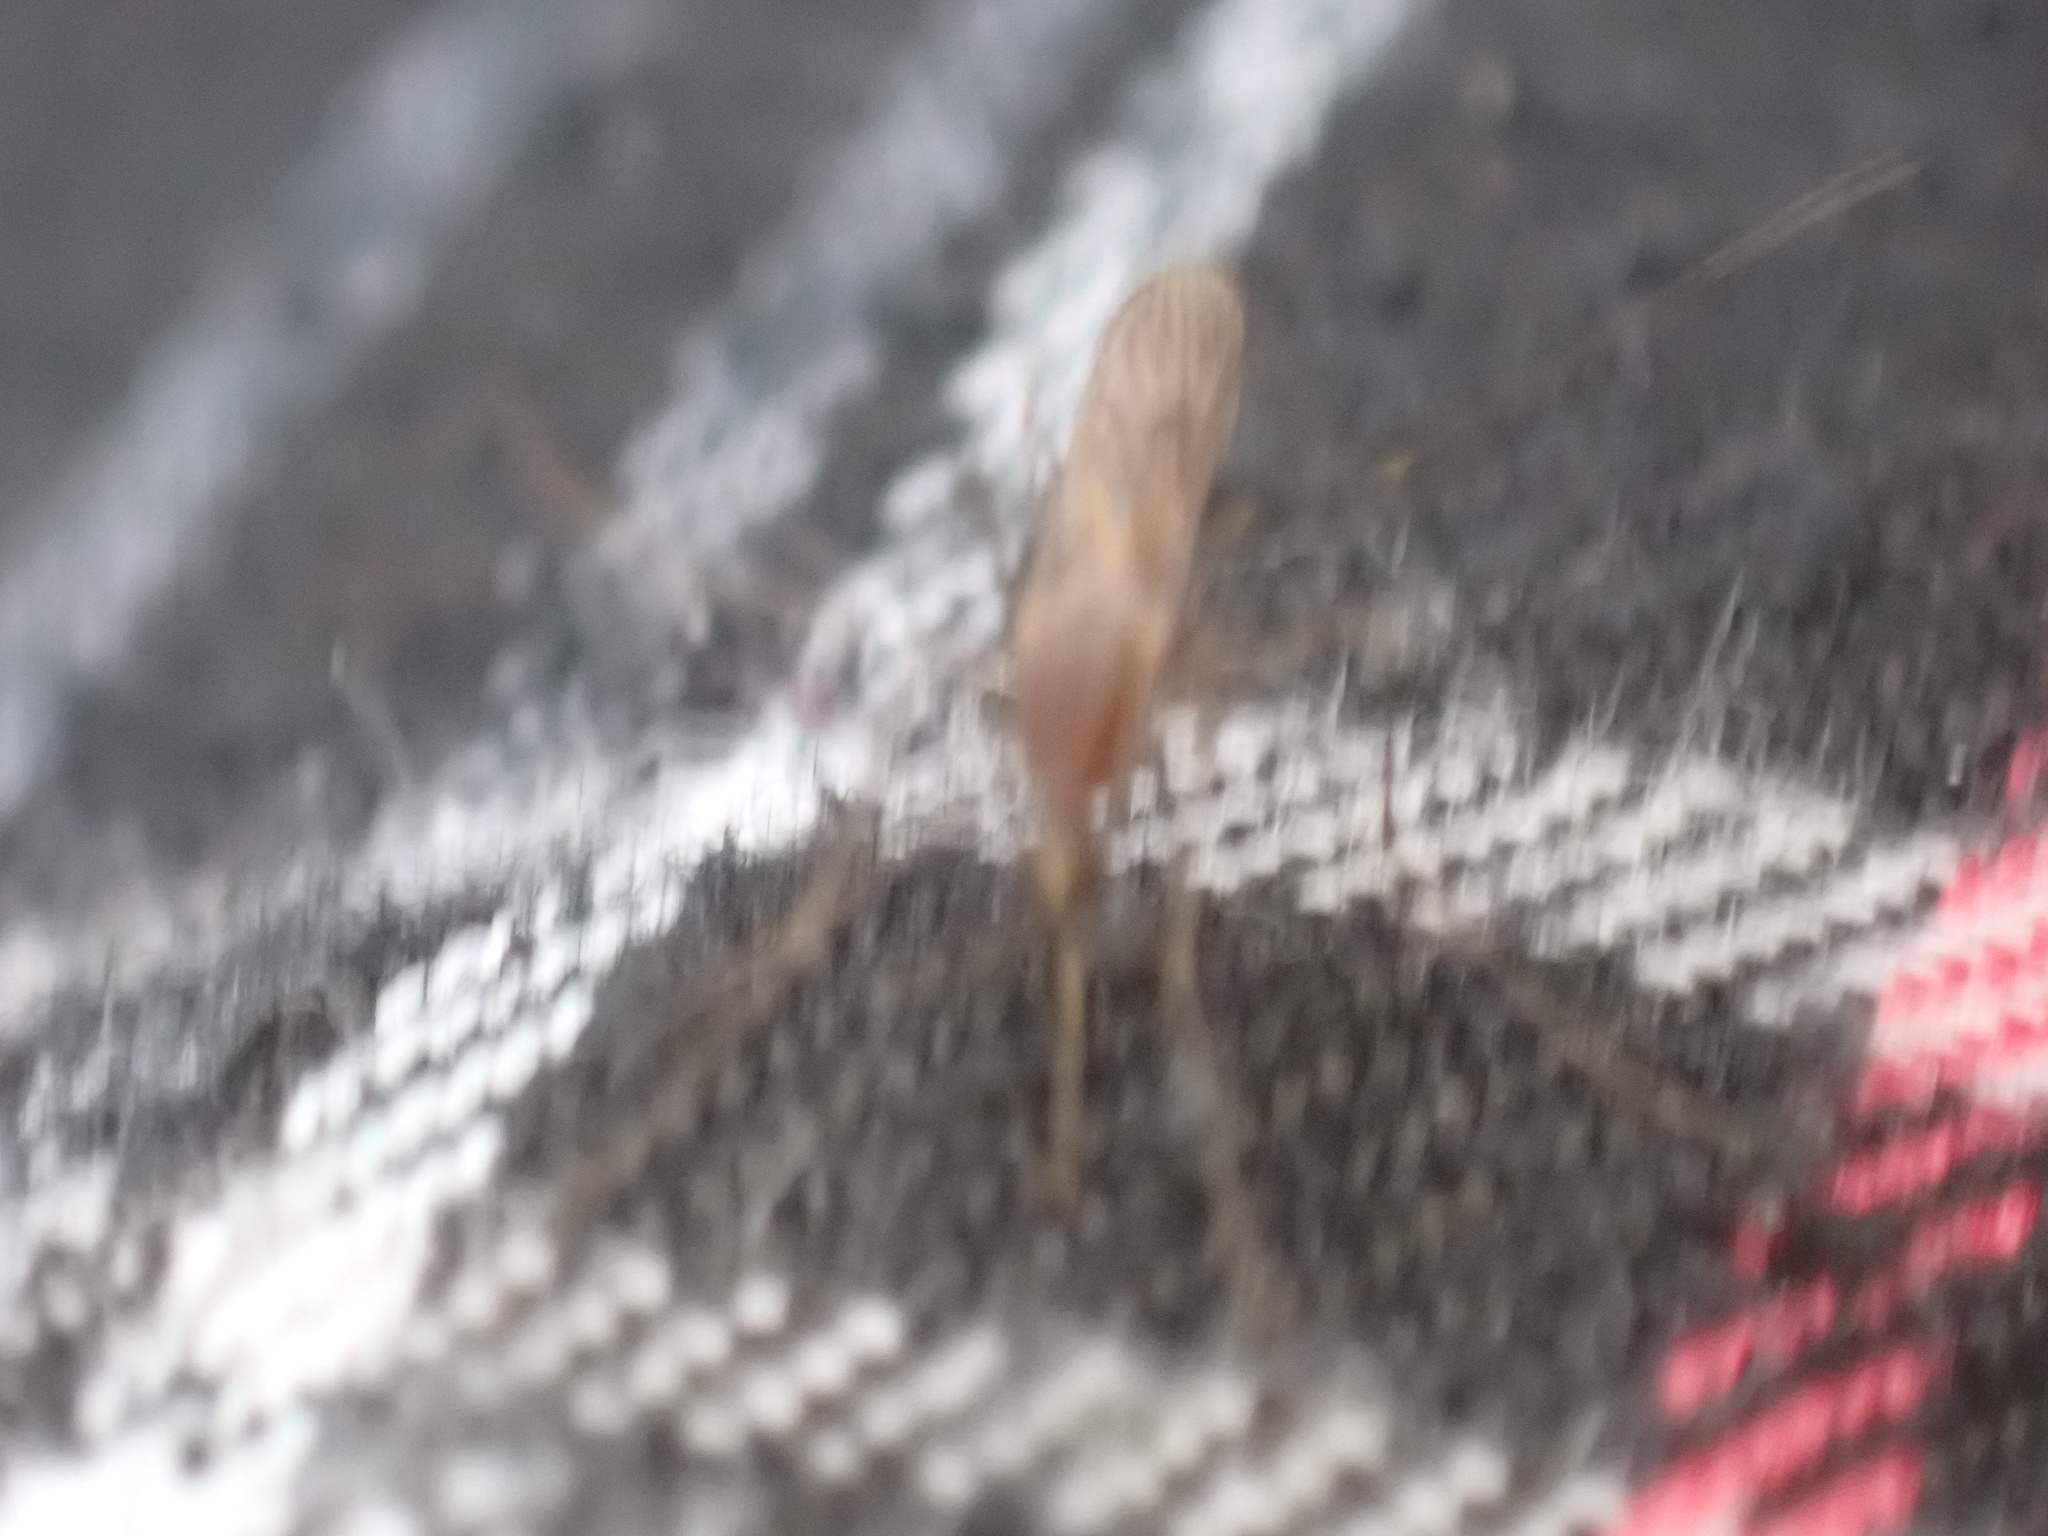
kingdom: Animalia
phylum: Arthropoda
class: Insecta
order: Diptera
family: Culicidae
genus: Anopheles
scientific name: Anopheles
